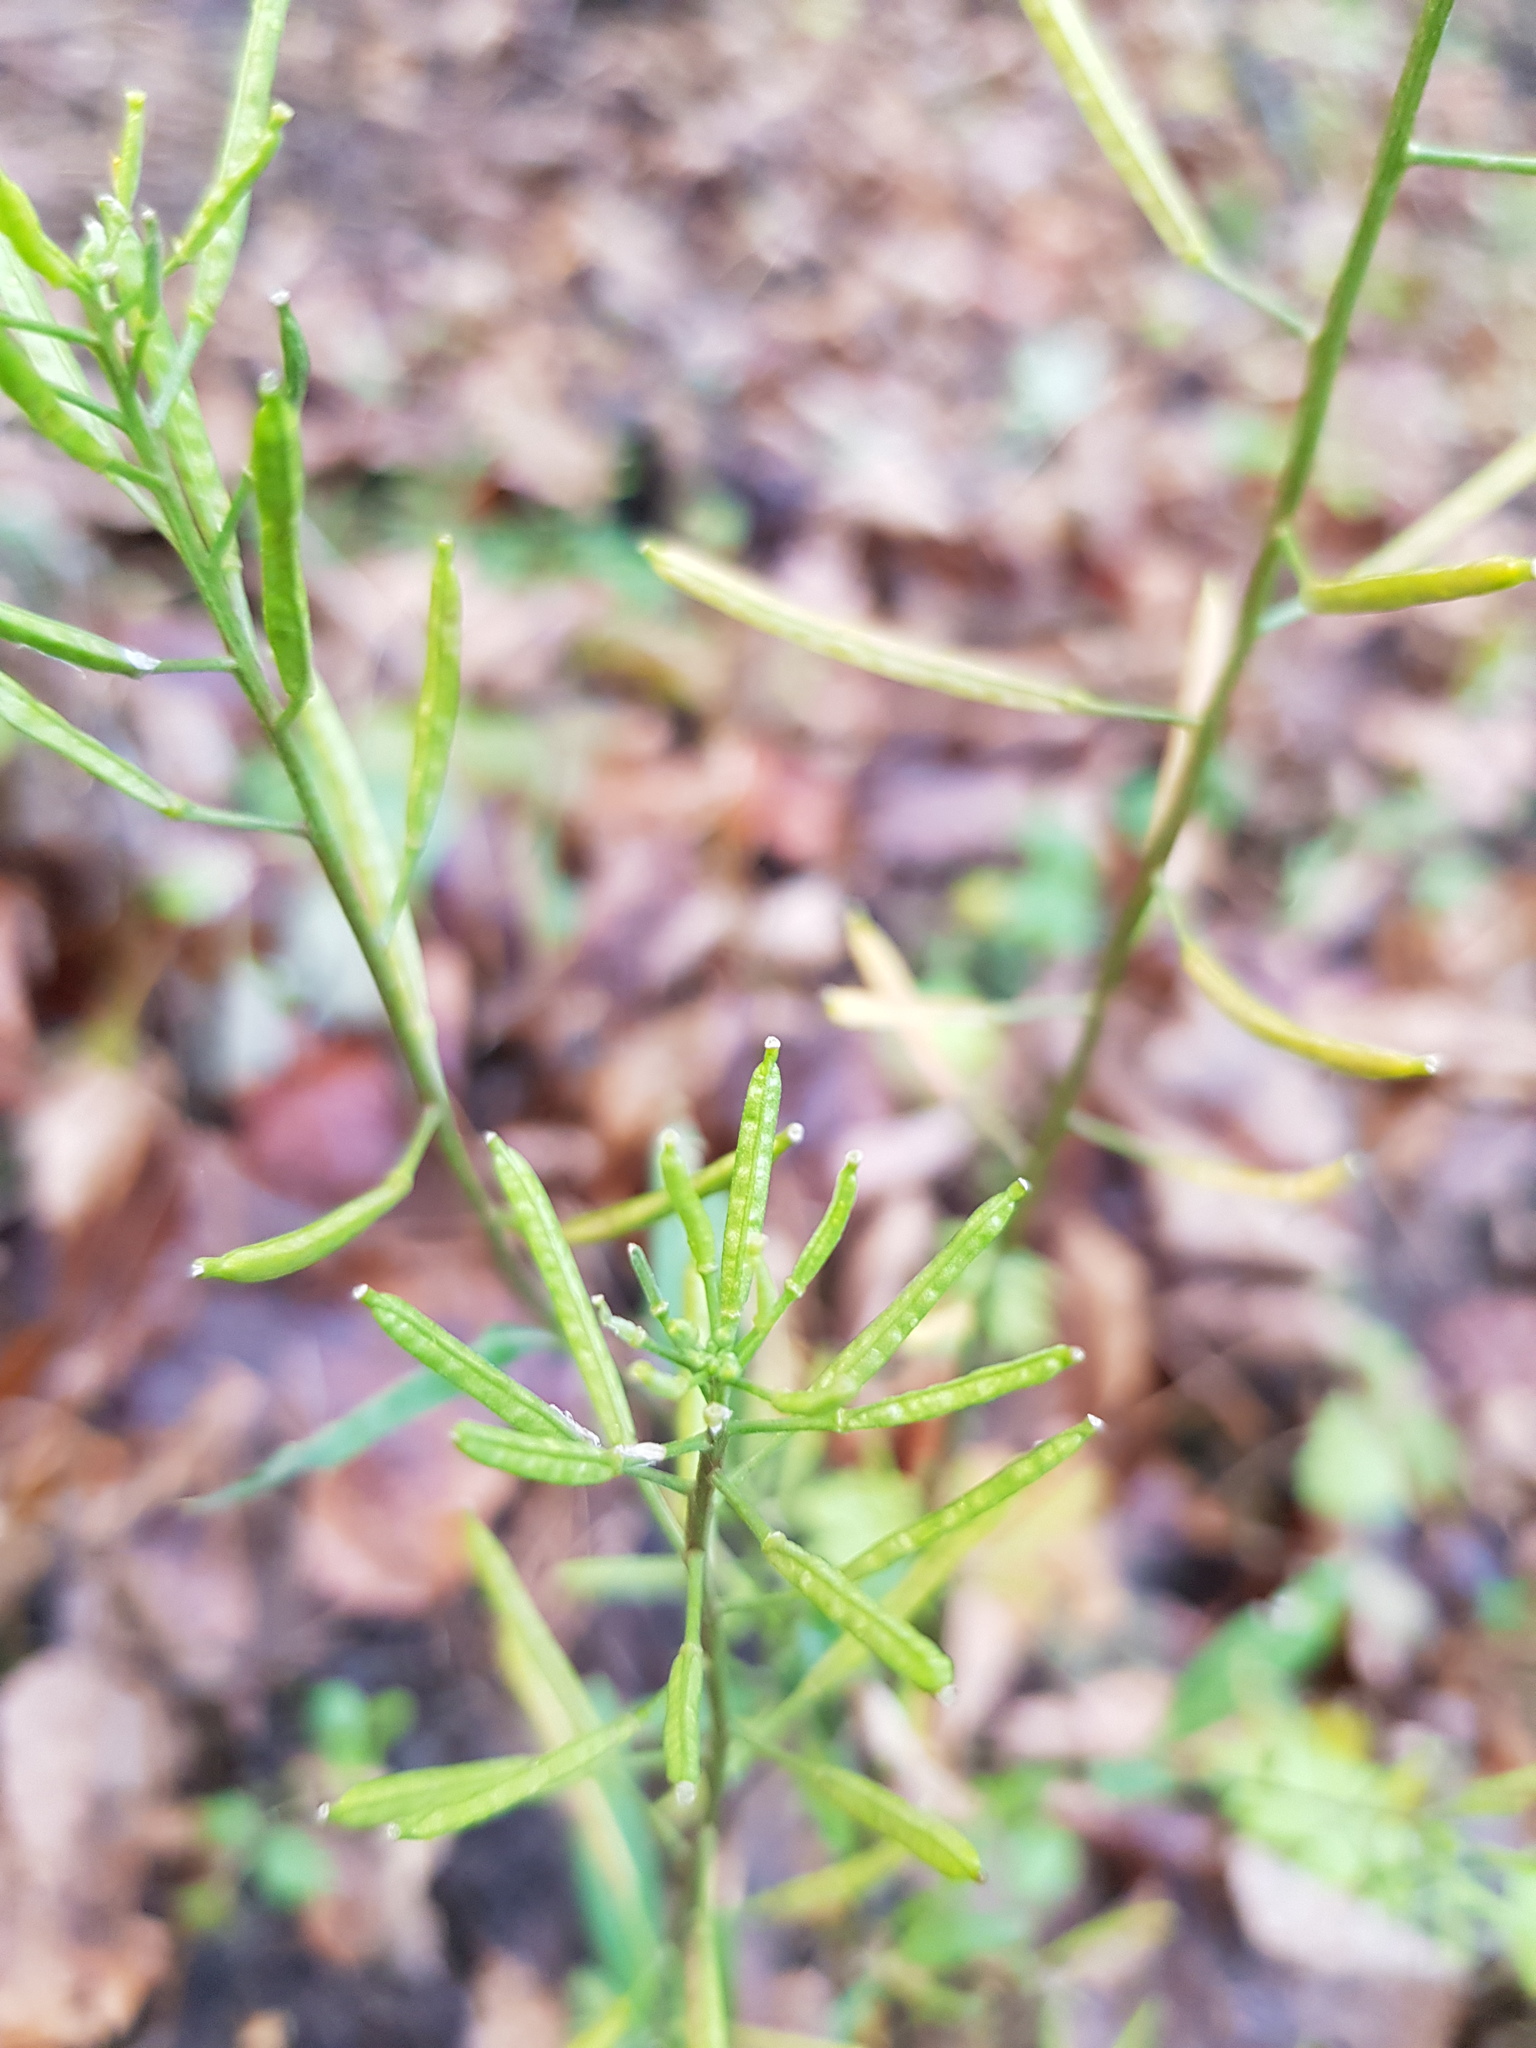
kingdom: Plantae
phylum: Tracheophyta
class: Magnoliopsida
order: Brassicales
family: Brassicaceae
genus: Erysimum
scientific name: Erysimum cheiranthoides
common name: Treacle mustard
